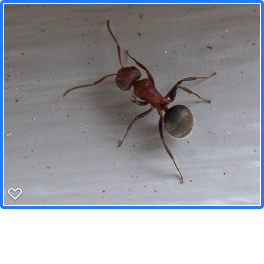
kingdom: Animalia
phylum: Arthropoda
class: Insecta
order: Hymenoptera
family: Formicidae
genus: Camponotus
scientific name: Camponotus planatus
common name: Compact carpenter ant
